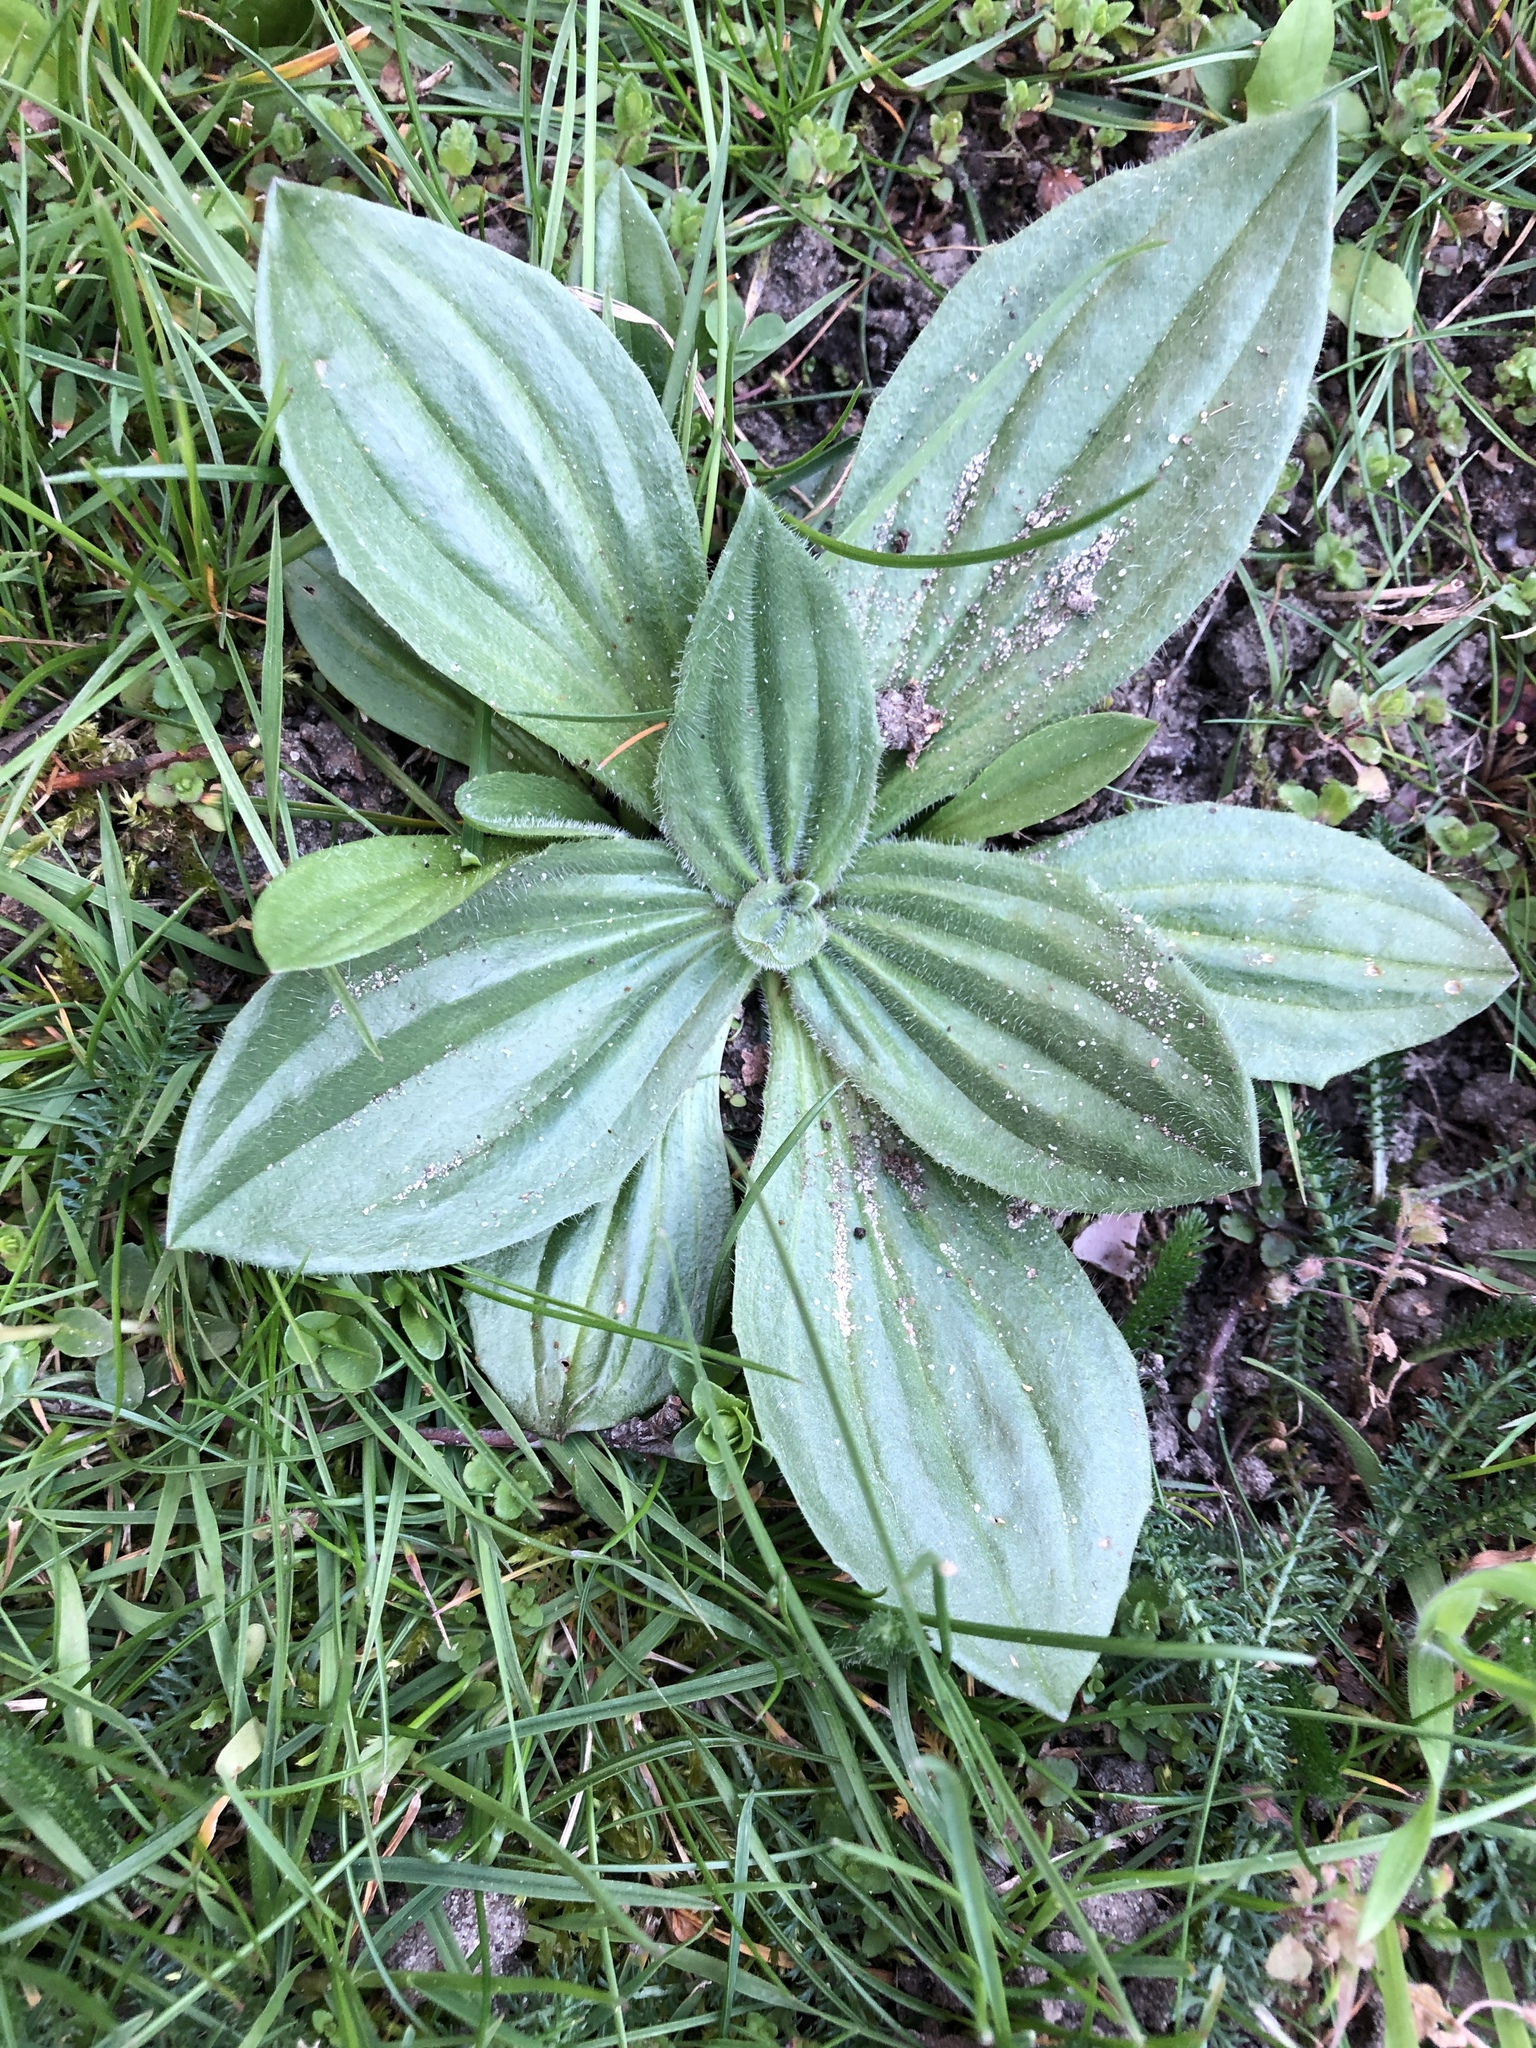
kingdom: Plantae
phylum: Tracheophyta
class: Magnoliopsida
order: Lamiales
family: Plantaginaceae
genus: Plantago
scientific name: Plantago media
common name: Hoary plantain
